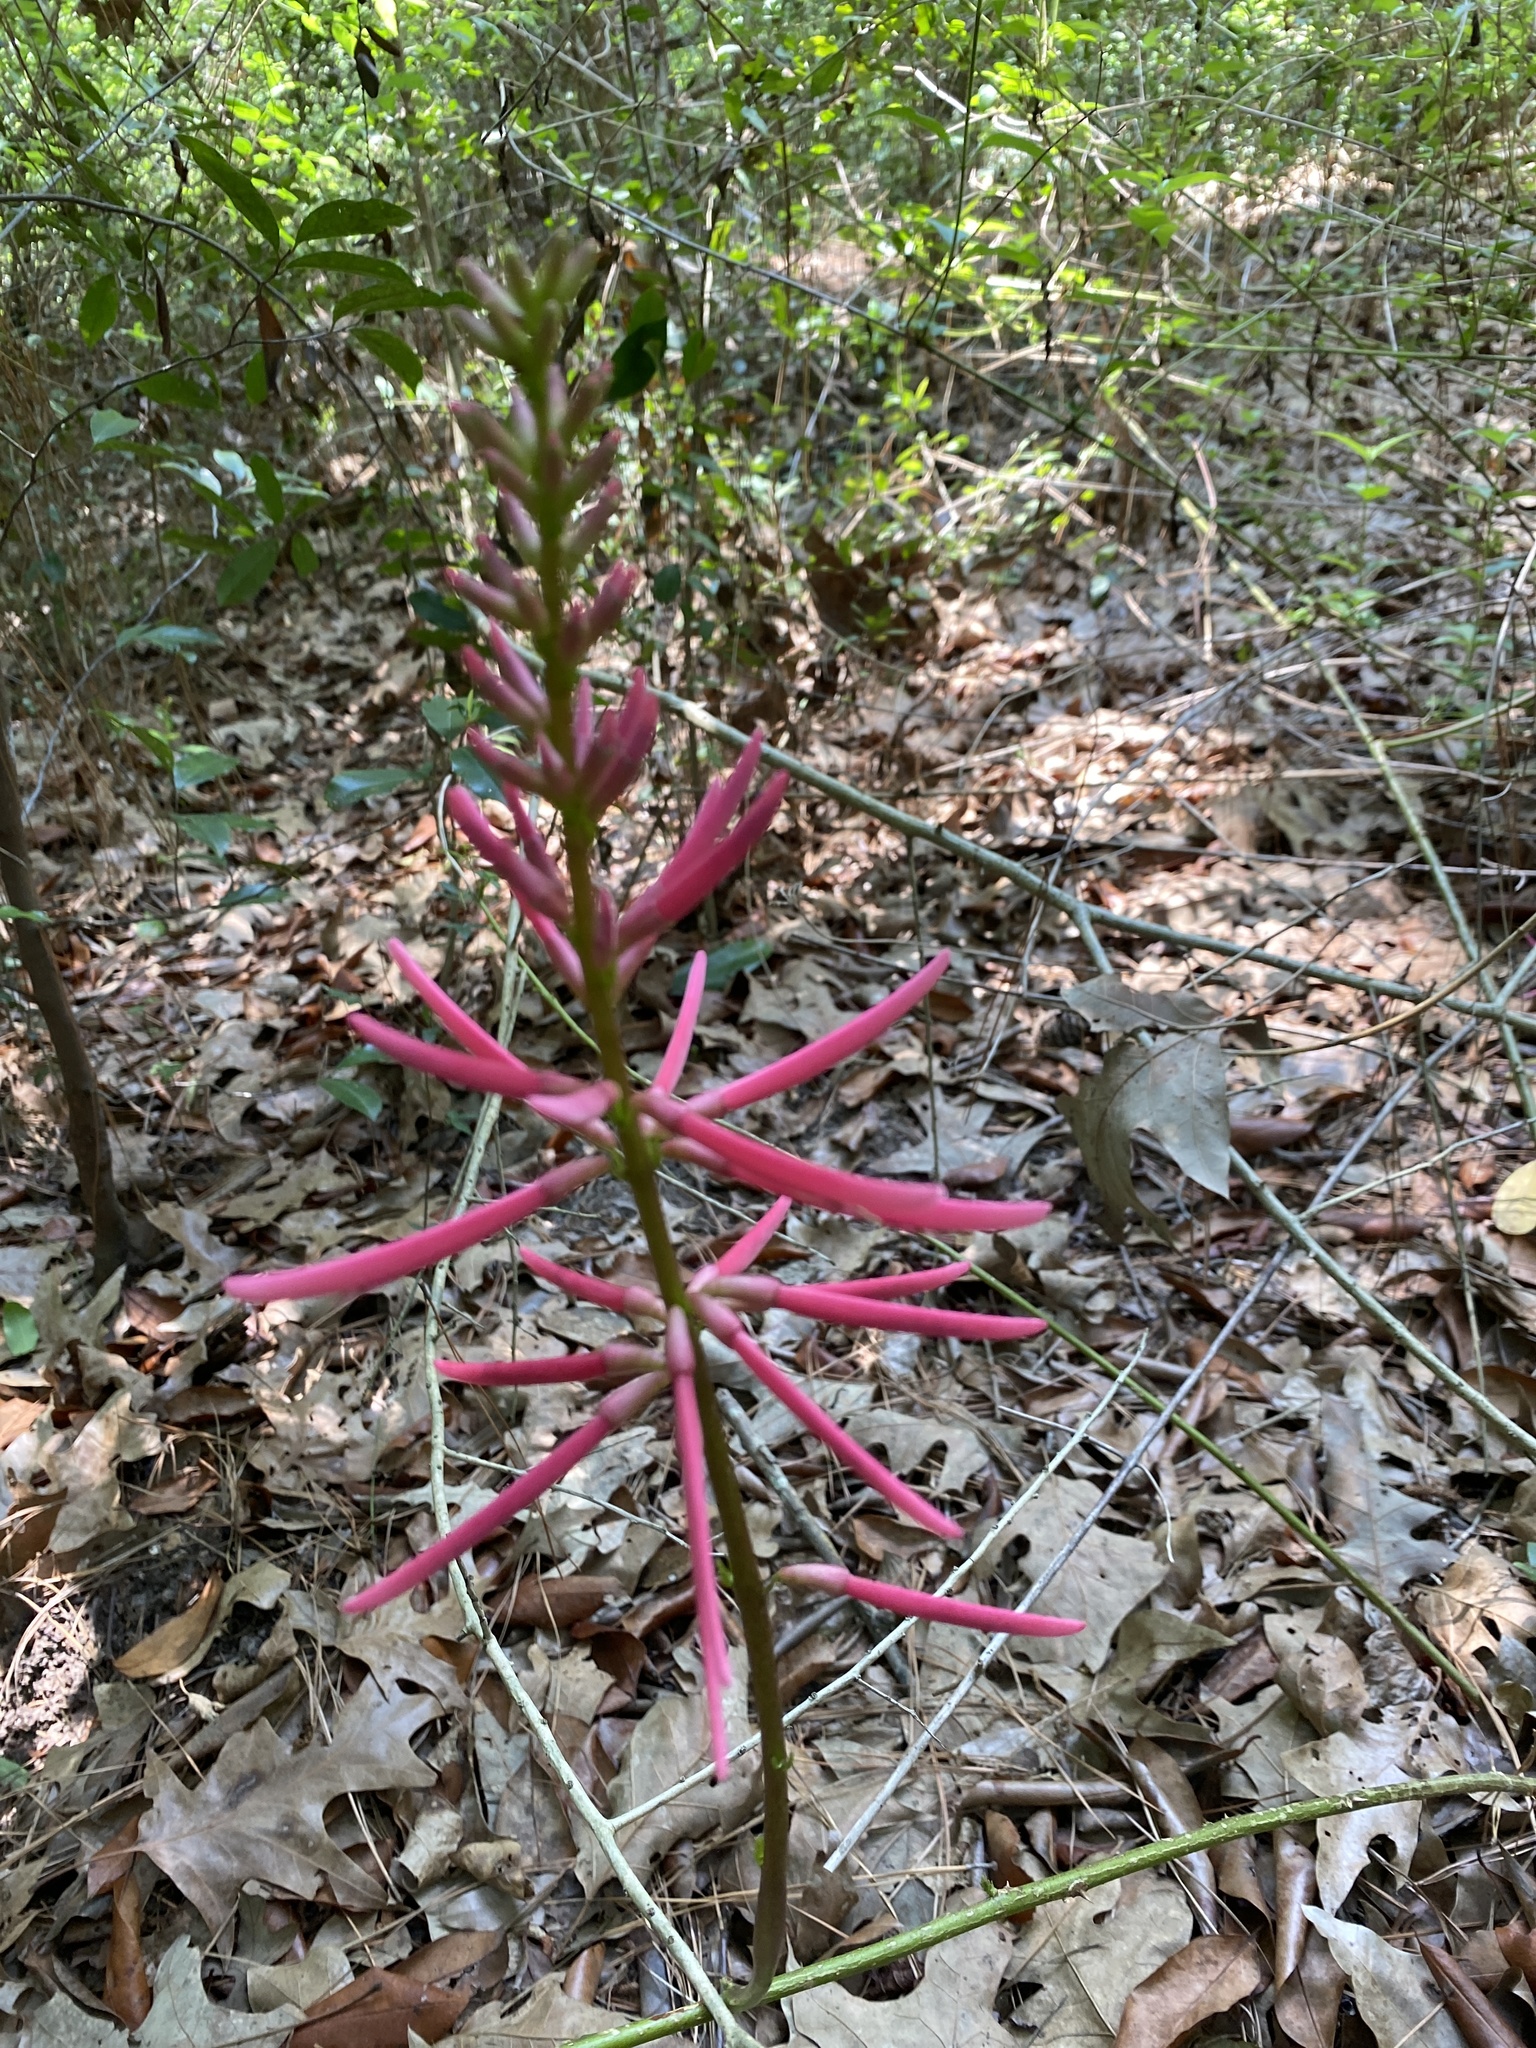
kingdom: Plantae
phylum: Tracheophyta
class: Magnoliopsida
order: Fabales
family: Fabaceae
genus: Erythrina
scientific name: Erythrina herbacea
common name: Coral-bean
